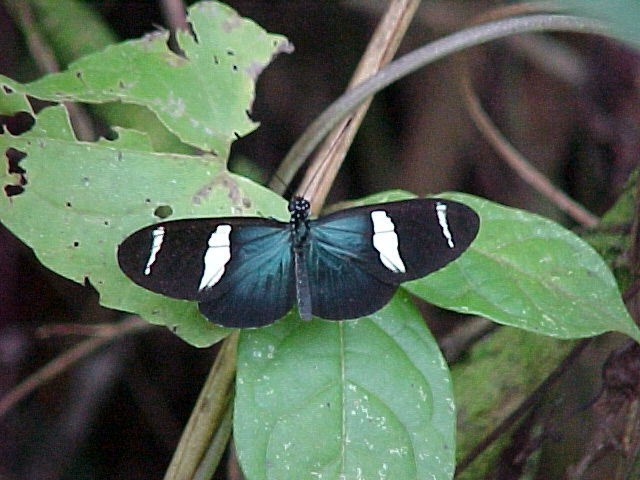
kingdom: Animalia
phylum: Arthropoda
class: Insecta
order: Lepidoptera
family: Nymphalidae
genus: Heliconius
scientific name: Heliconius sara
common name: Sara longwing
